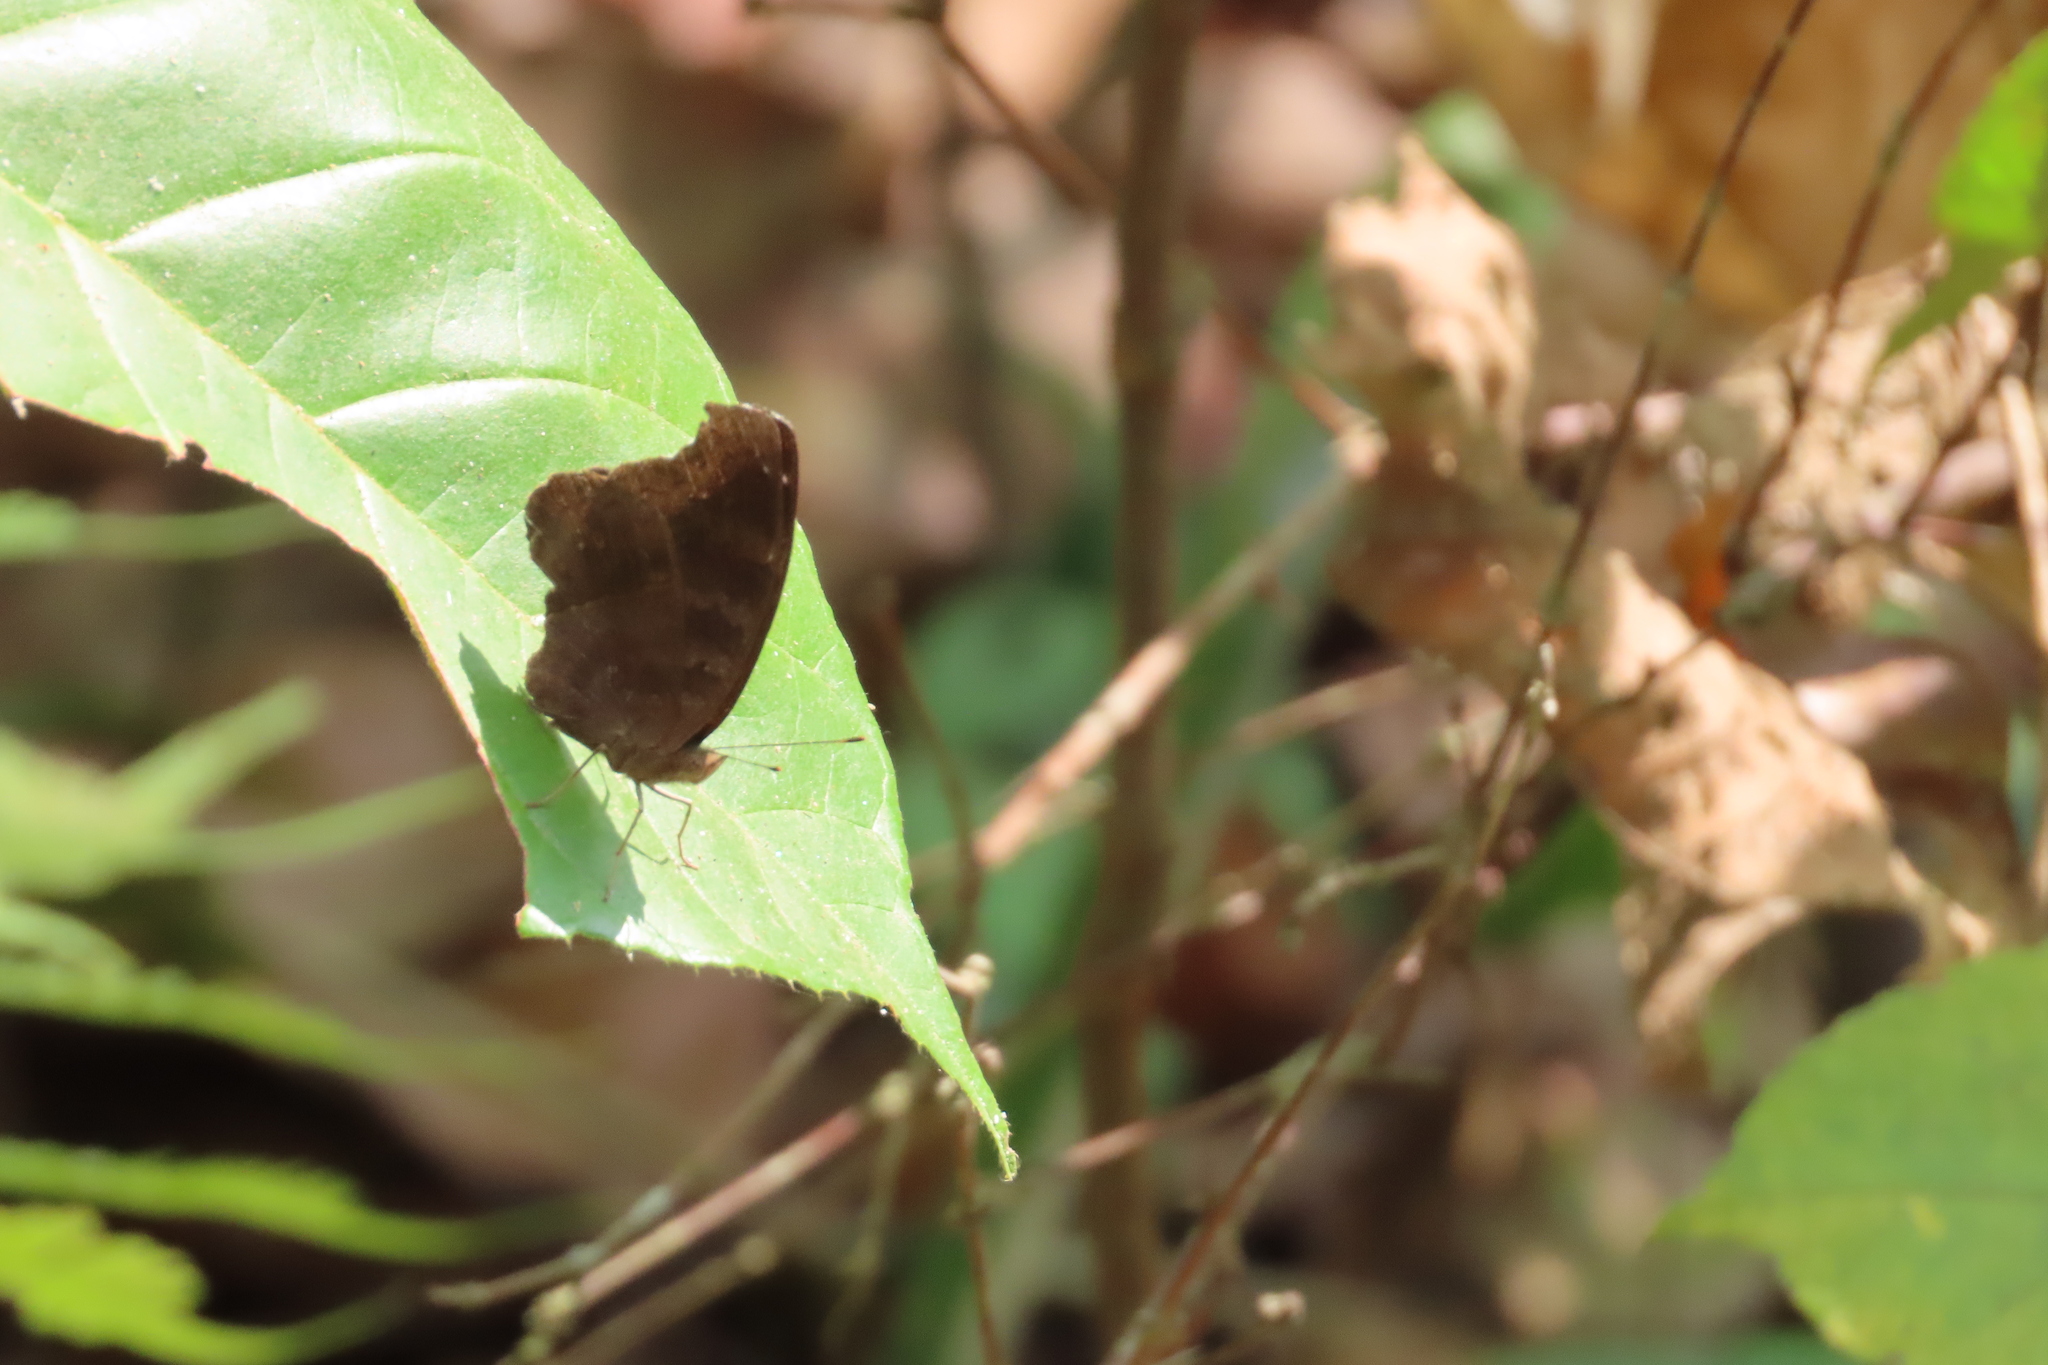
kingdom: Animalia
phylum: Arthropoda
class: Insecta
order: Lepidoptera
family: Nymphalidae
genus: Junonia
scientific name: Junonia iphita
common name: Chocolate pansy
